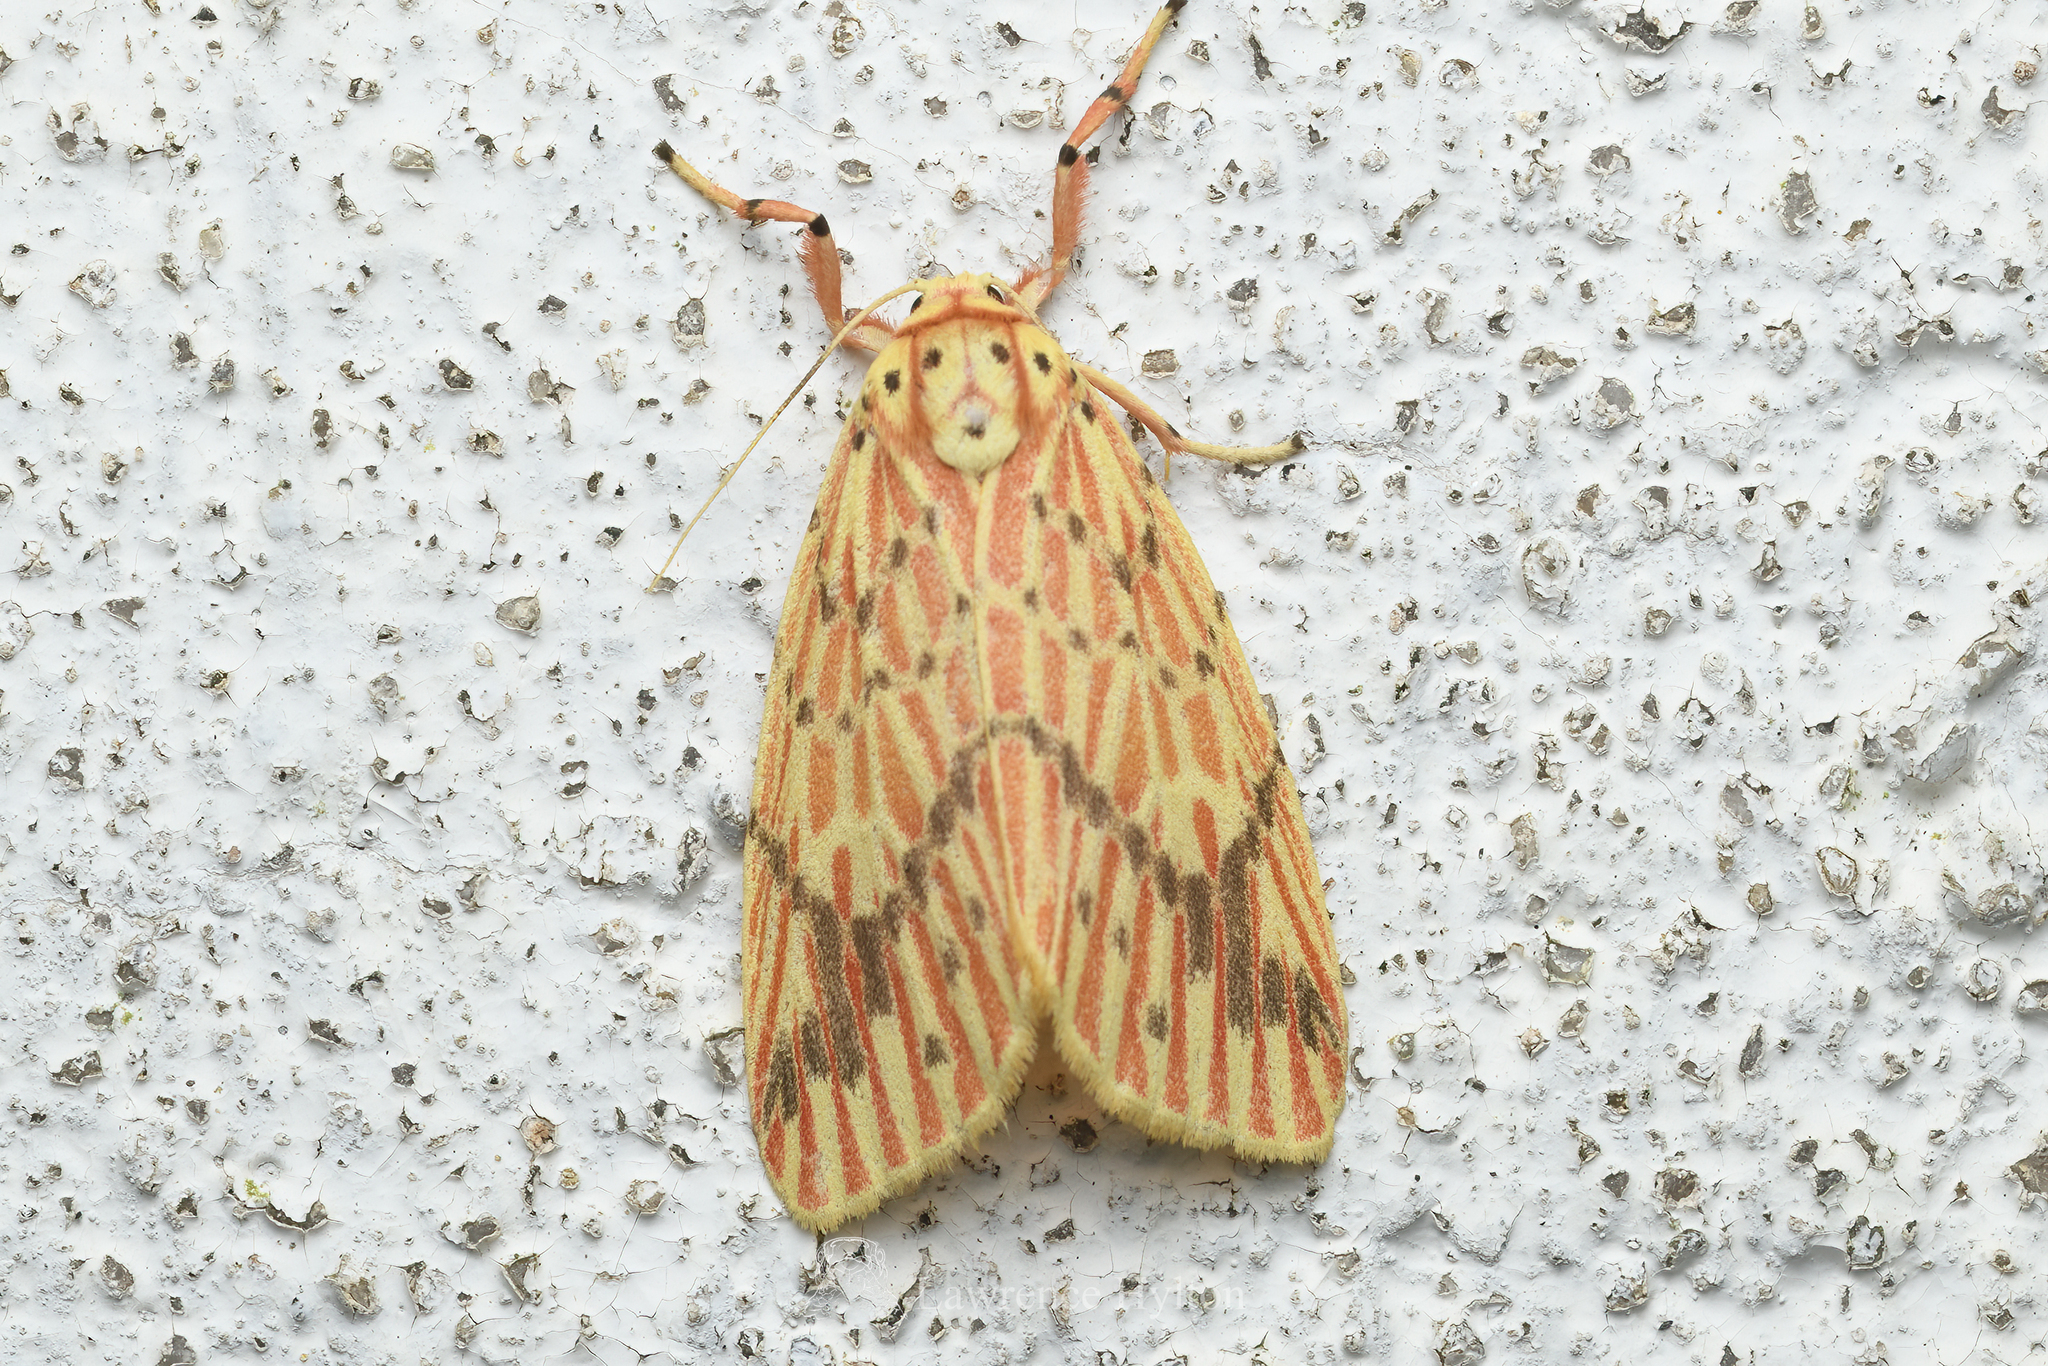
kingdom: Animalia
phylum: Arthropoda
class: Insecta
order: Lepidoptera
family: Erebidae
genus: Barsine
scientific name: Barsine striata
